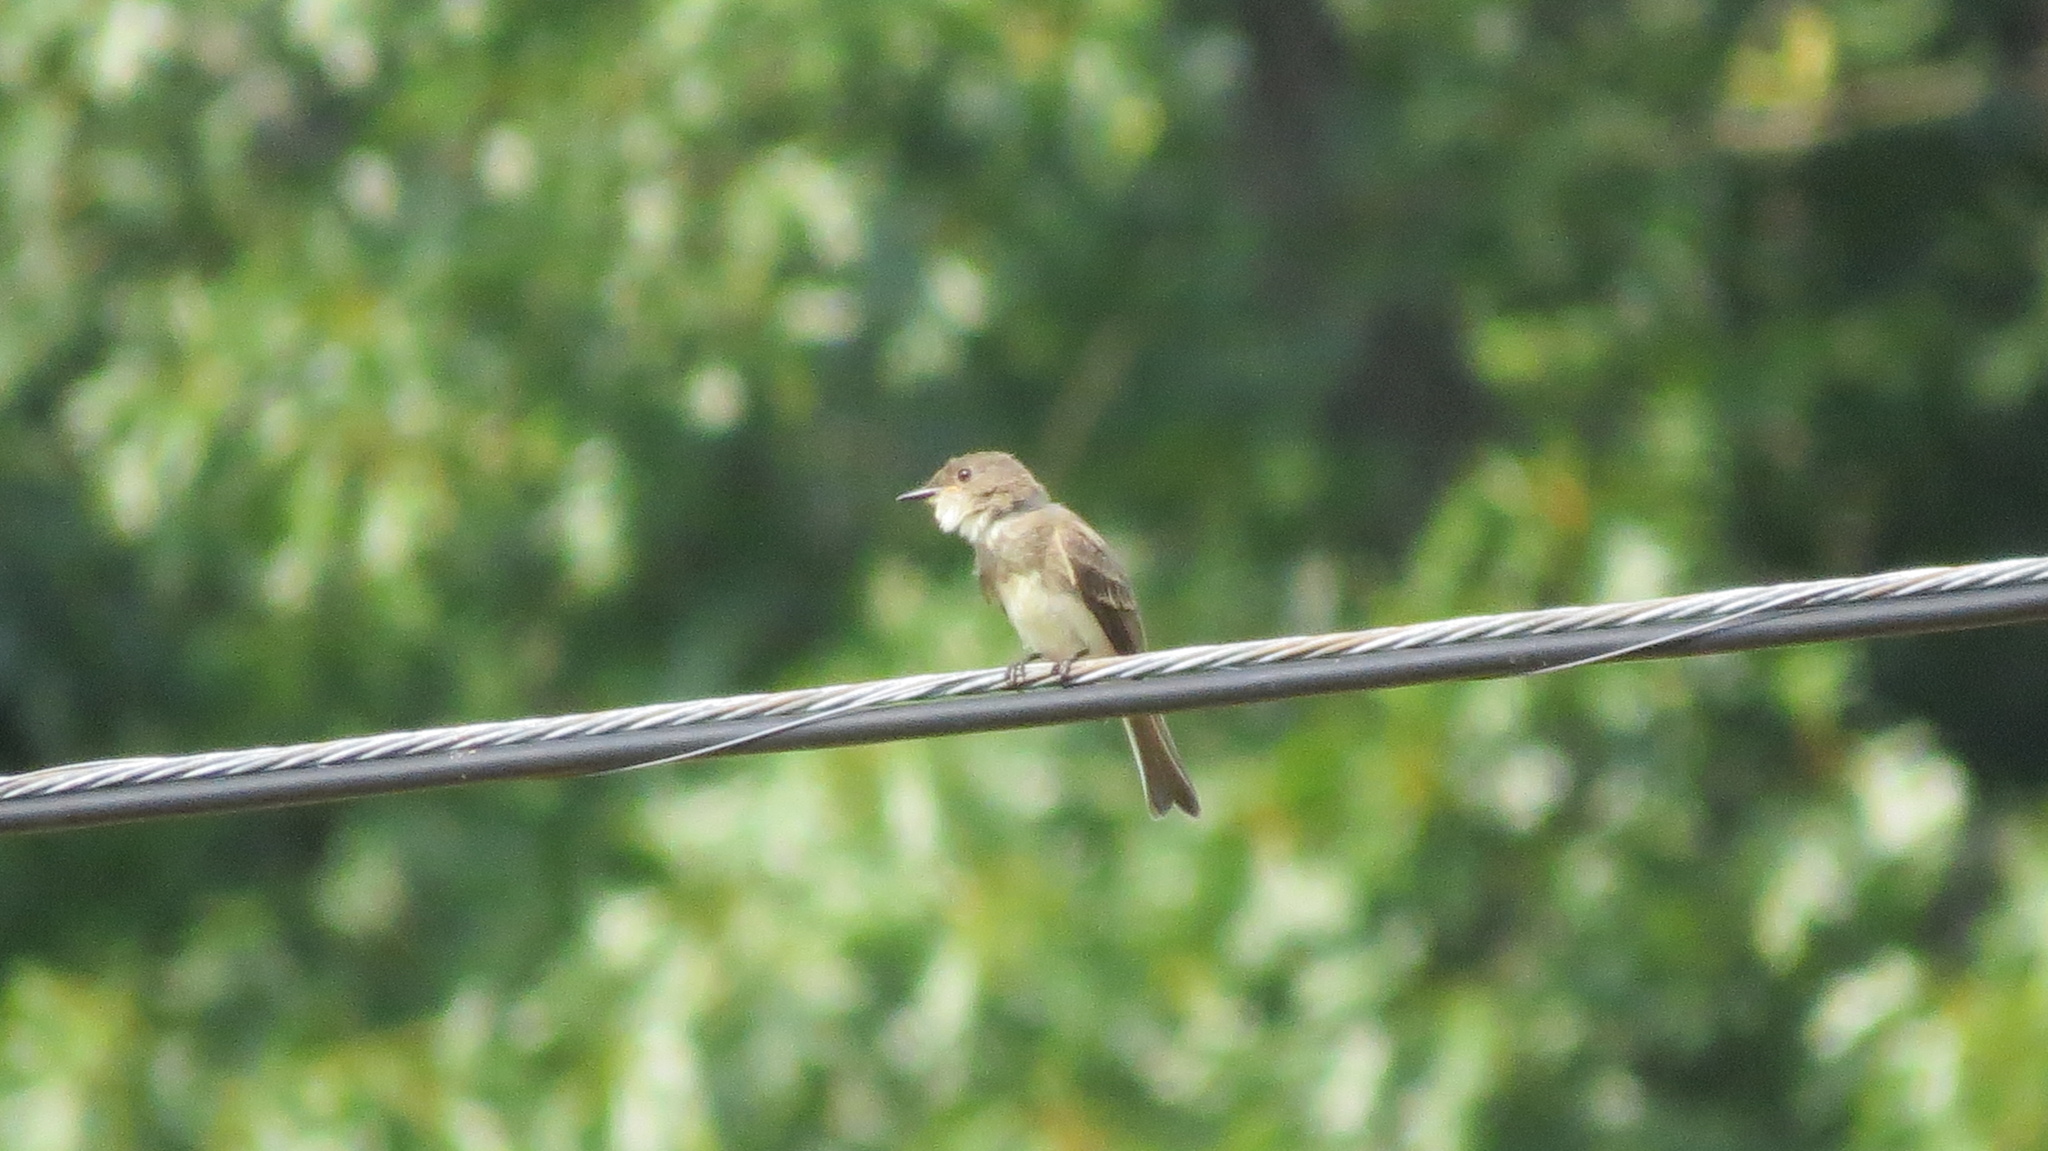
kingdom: Animalia
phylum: Chordata
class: Aves
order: Passeriformes
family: Tyrannidae
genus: Contopus
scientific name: Contopus virens
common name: Eastern wood-pewee
